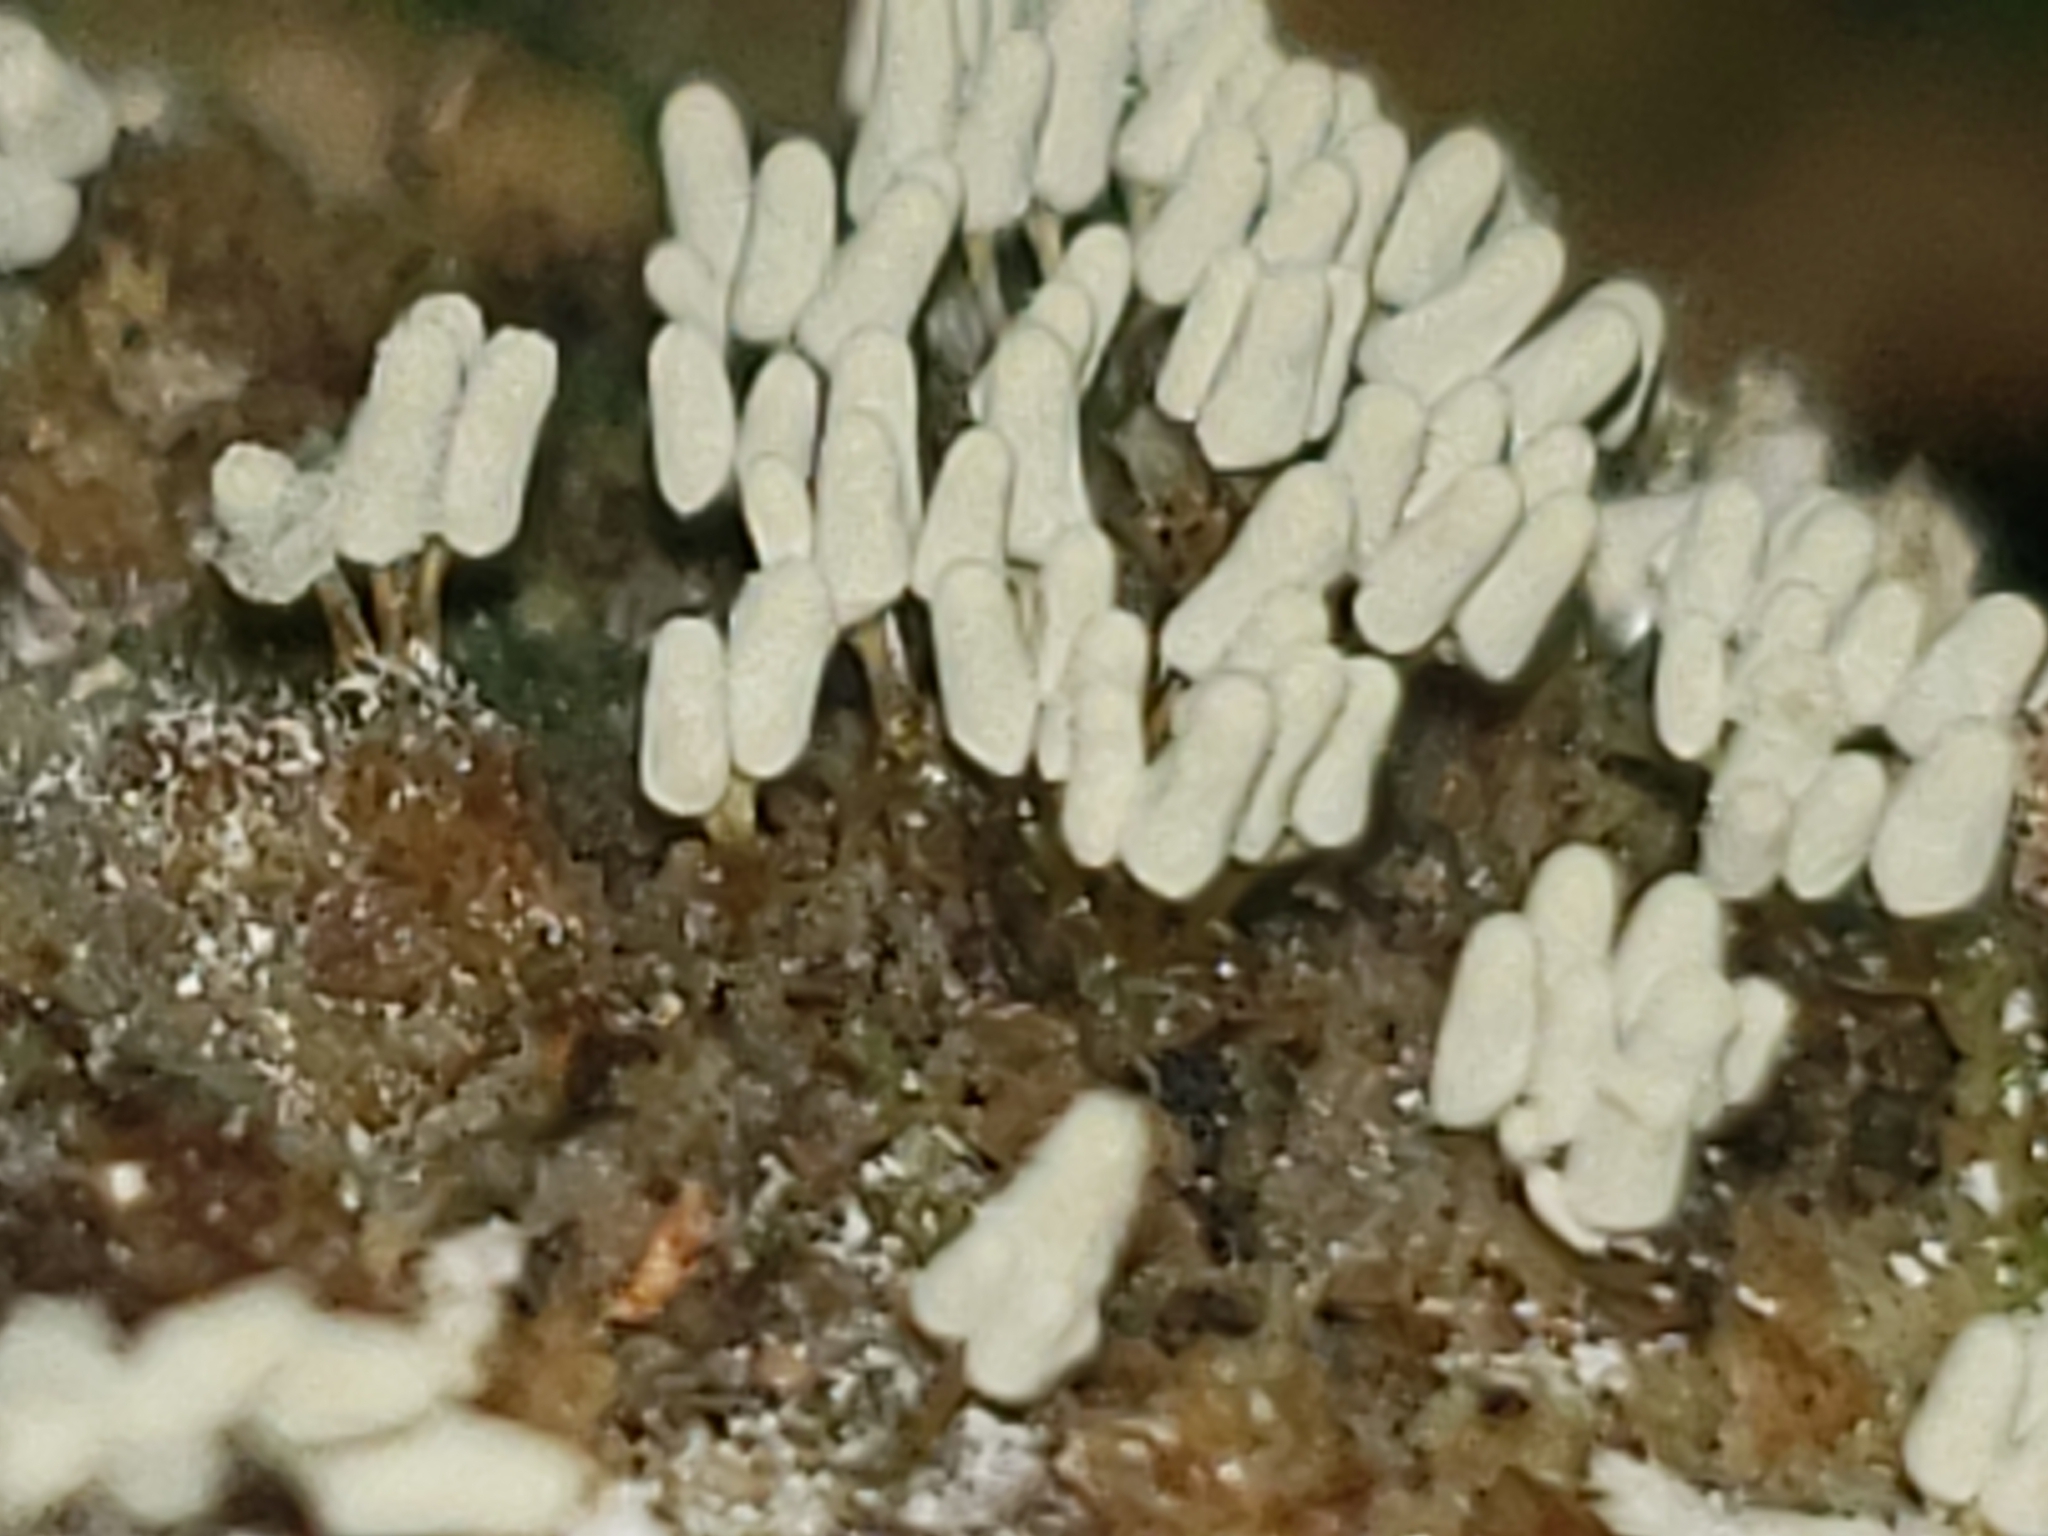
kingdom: Protozoa
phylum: Mycetozoa
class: Myxomycetes
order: Trichiales
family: Arcyriaceae
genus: Arcyria
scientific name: Arcyria cinerea
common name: White carnival candy slime mold
